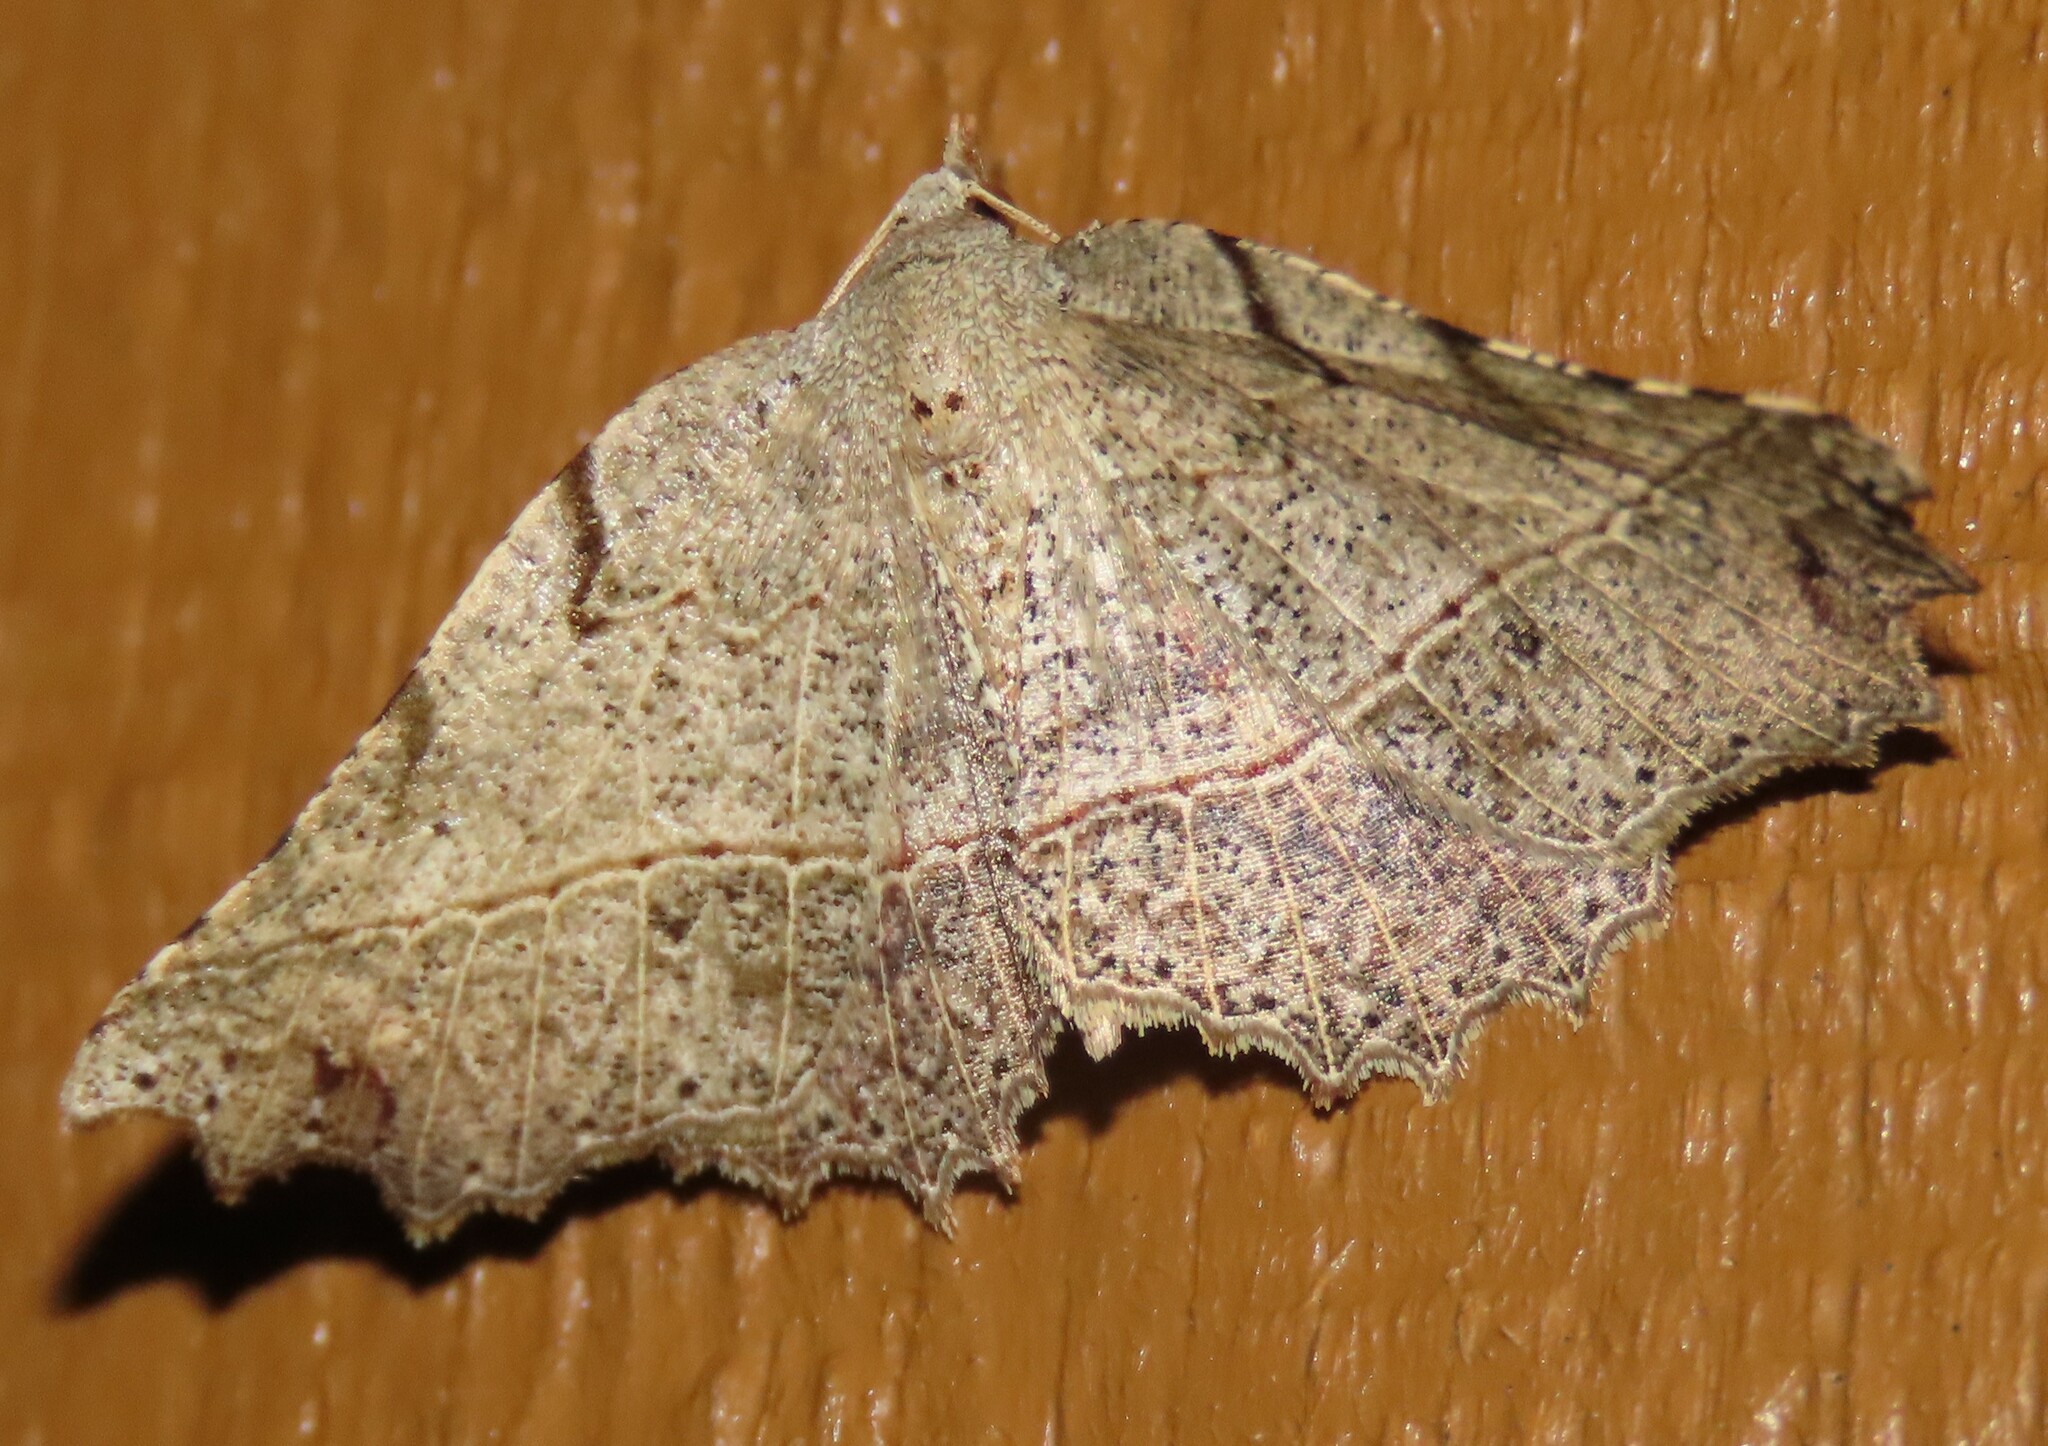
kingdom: Animalia
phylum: Arthropoda
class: Insecta
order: Lepidoptera
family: Geometridae
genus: Ischalis
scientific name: Ischalis gallaria
